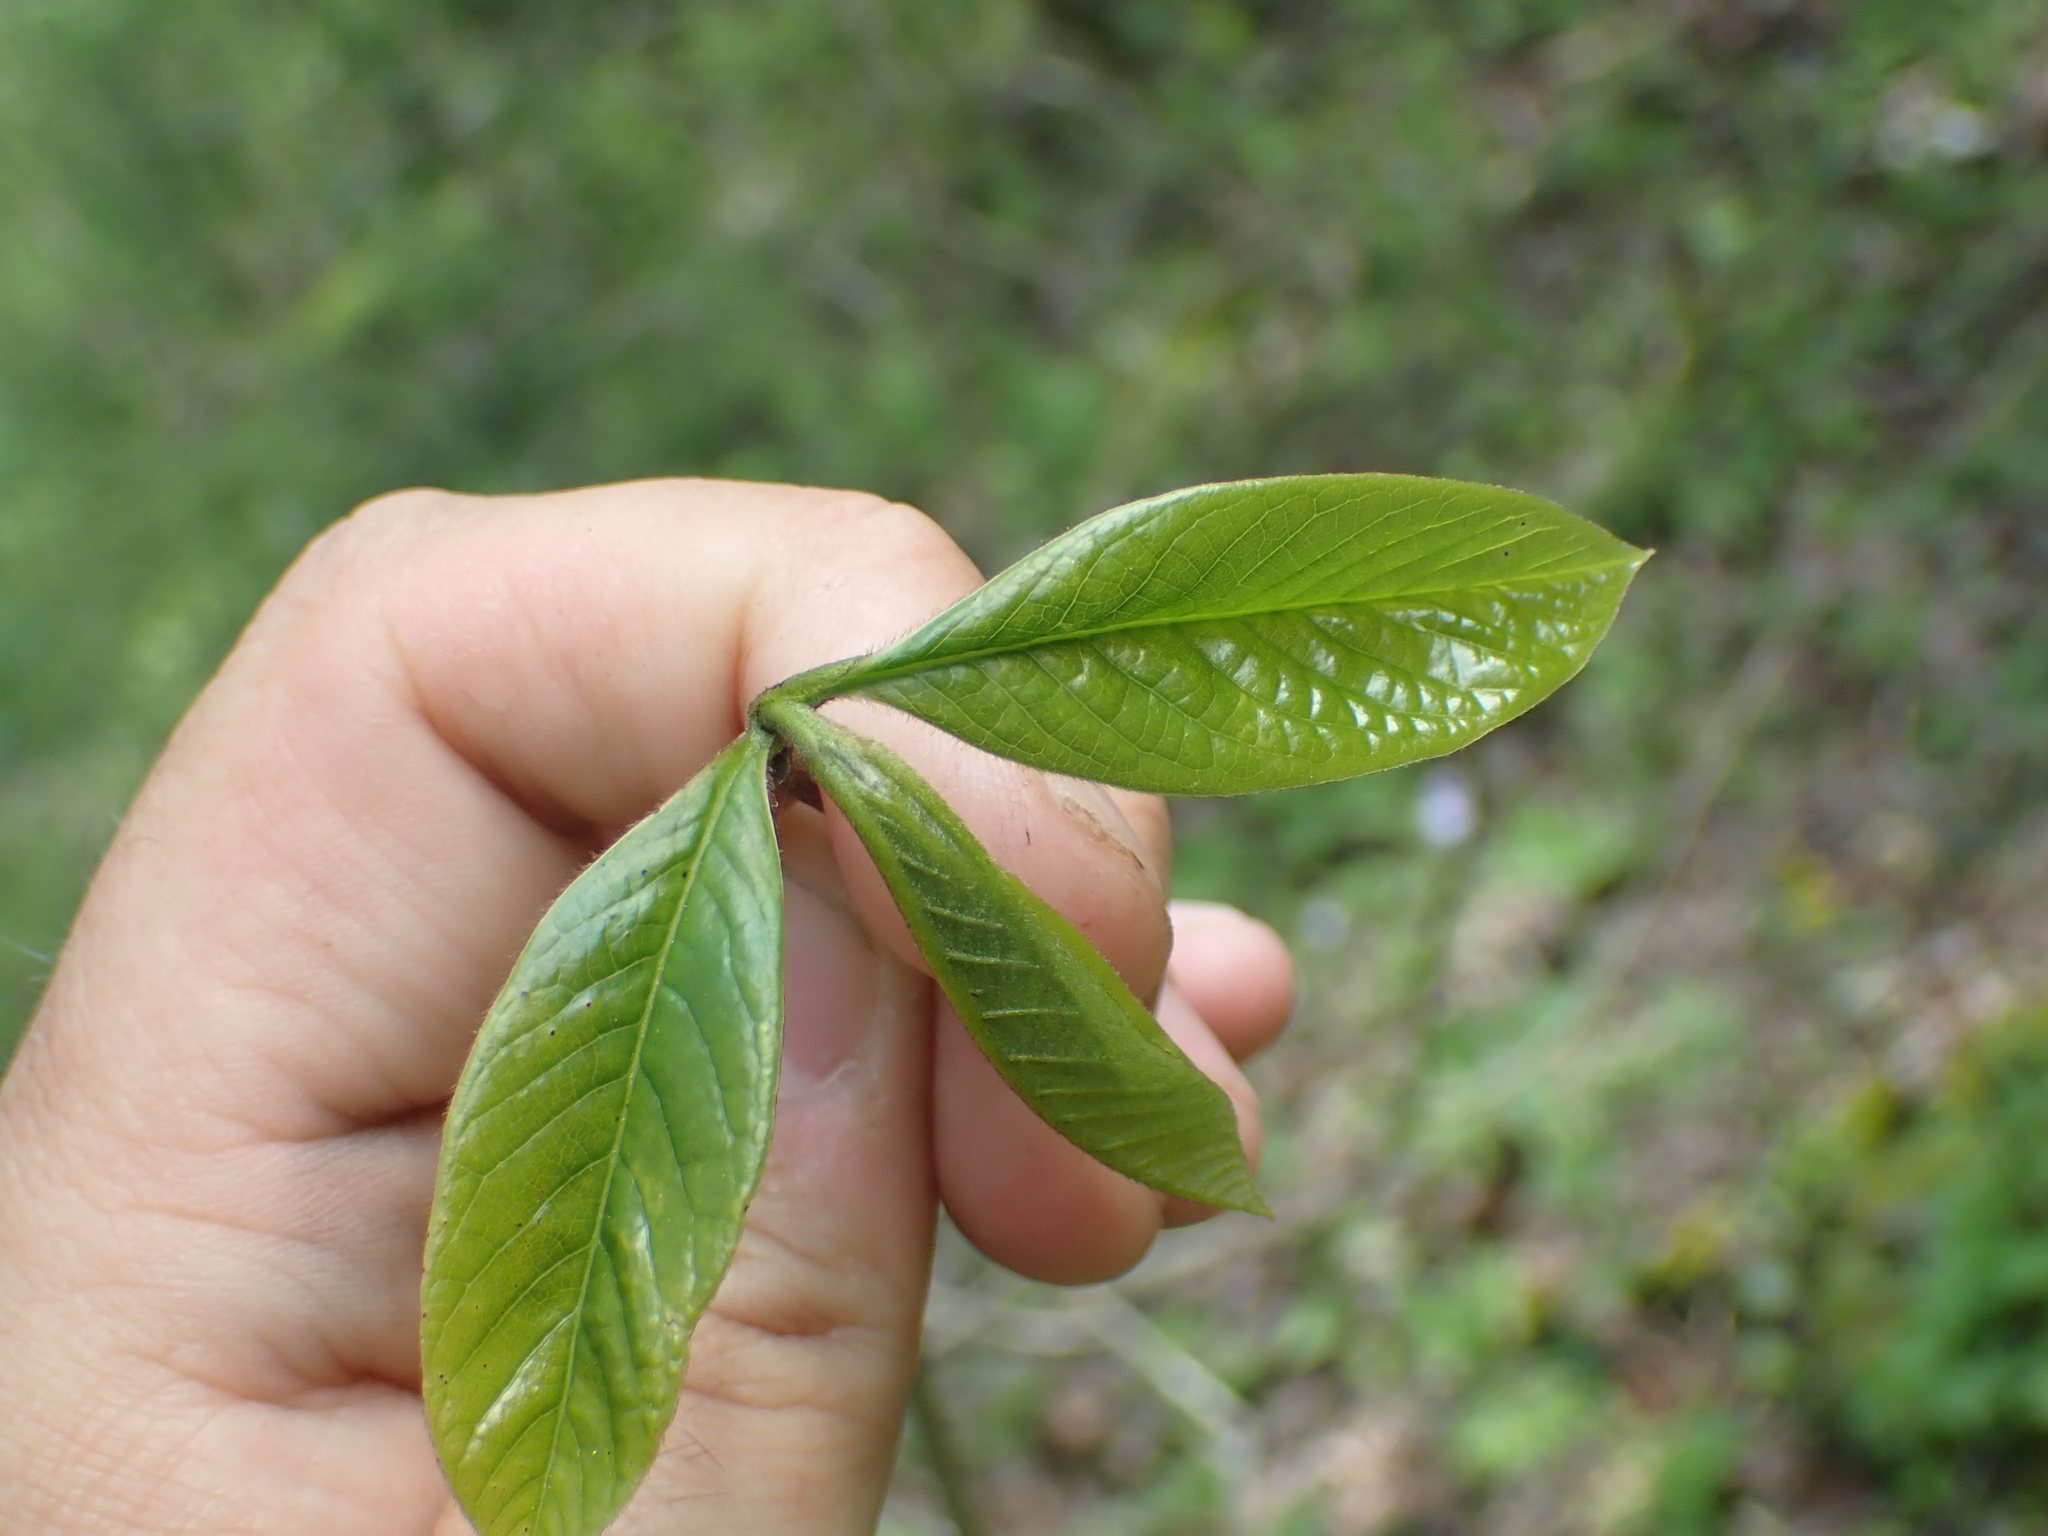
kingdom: Plantae
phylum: Tracheophyta
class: Magnoliopsida
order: Magnoliales
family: Annonaceae
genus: Asimina
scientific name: Asimina triloba
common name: Dog-banana
